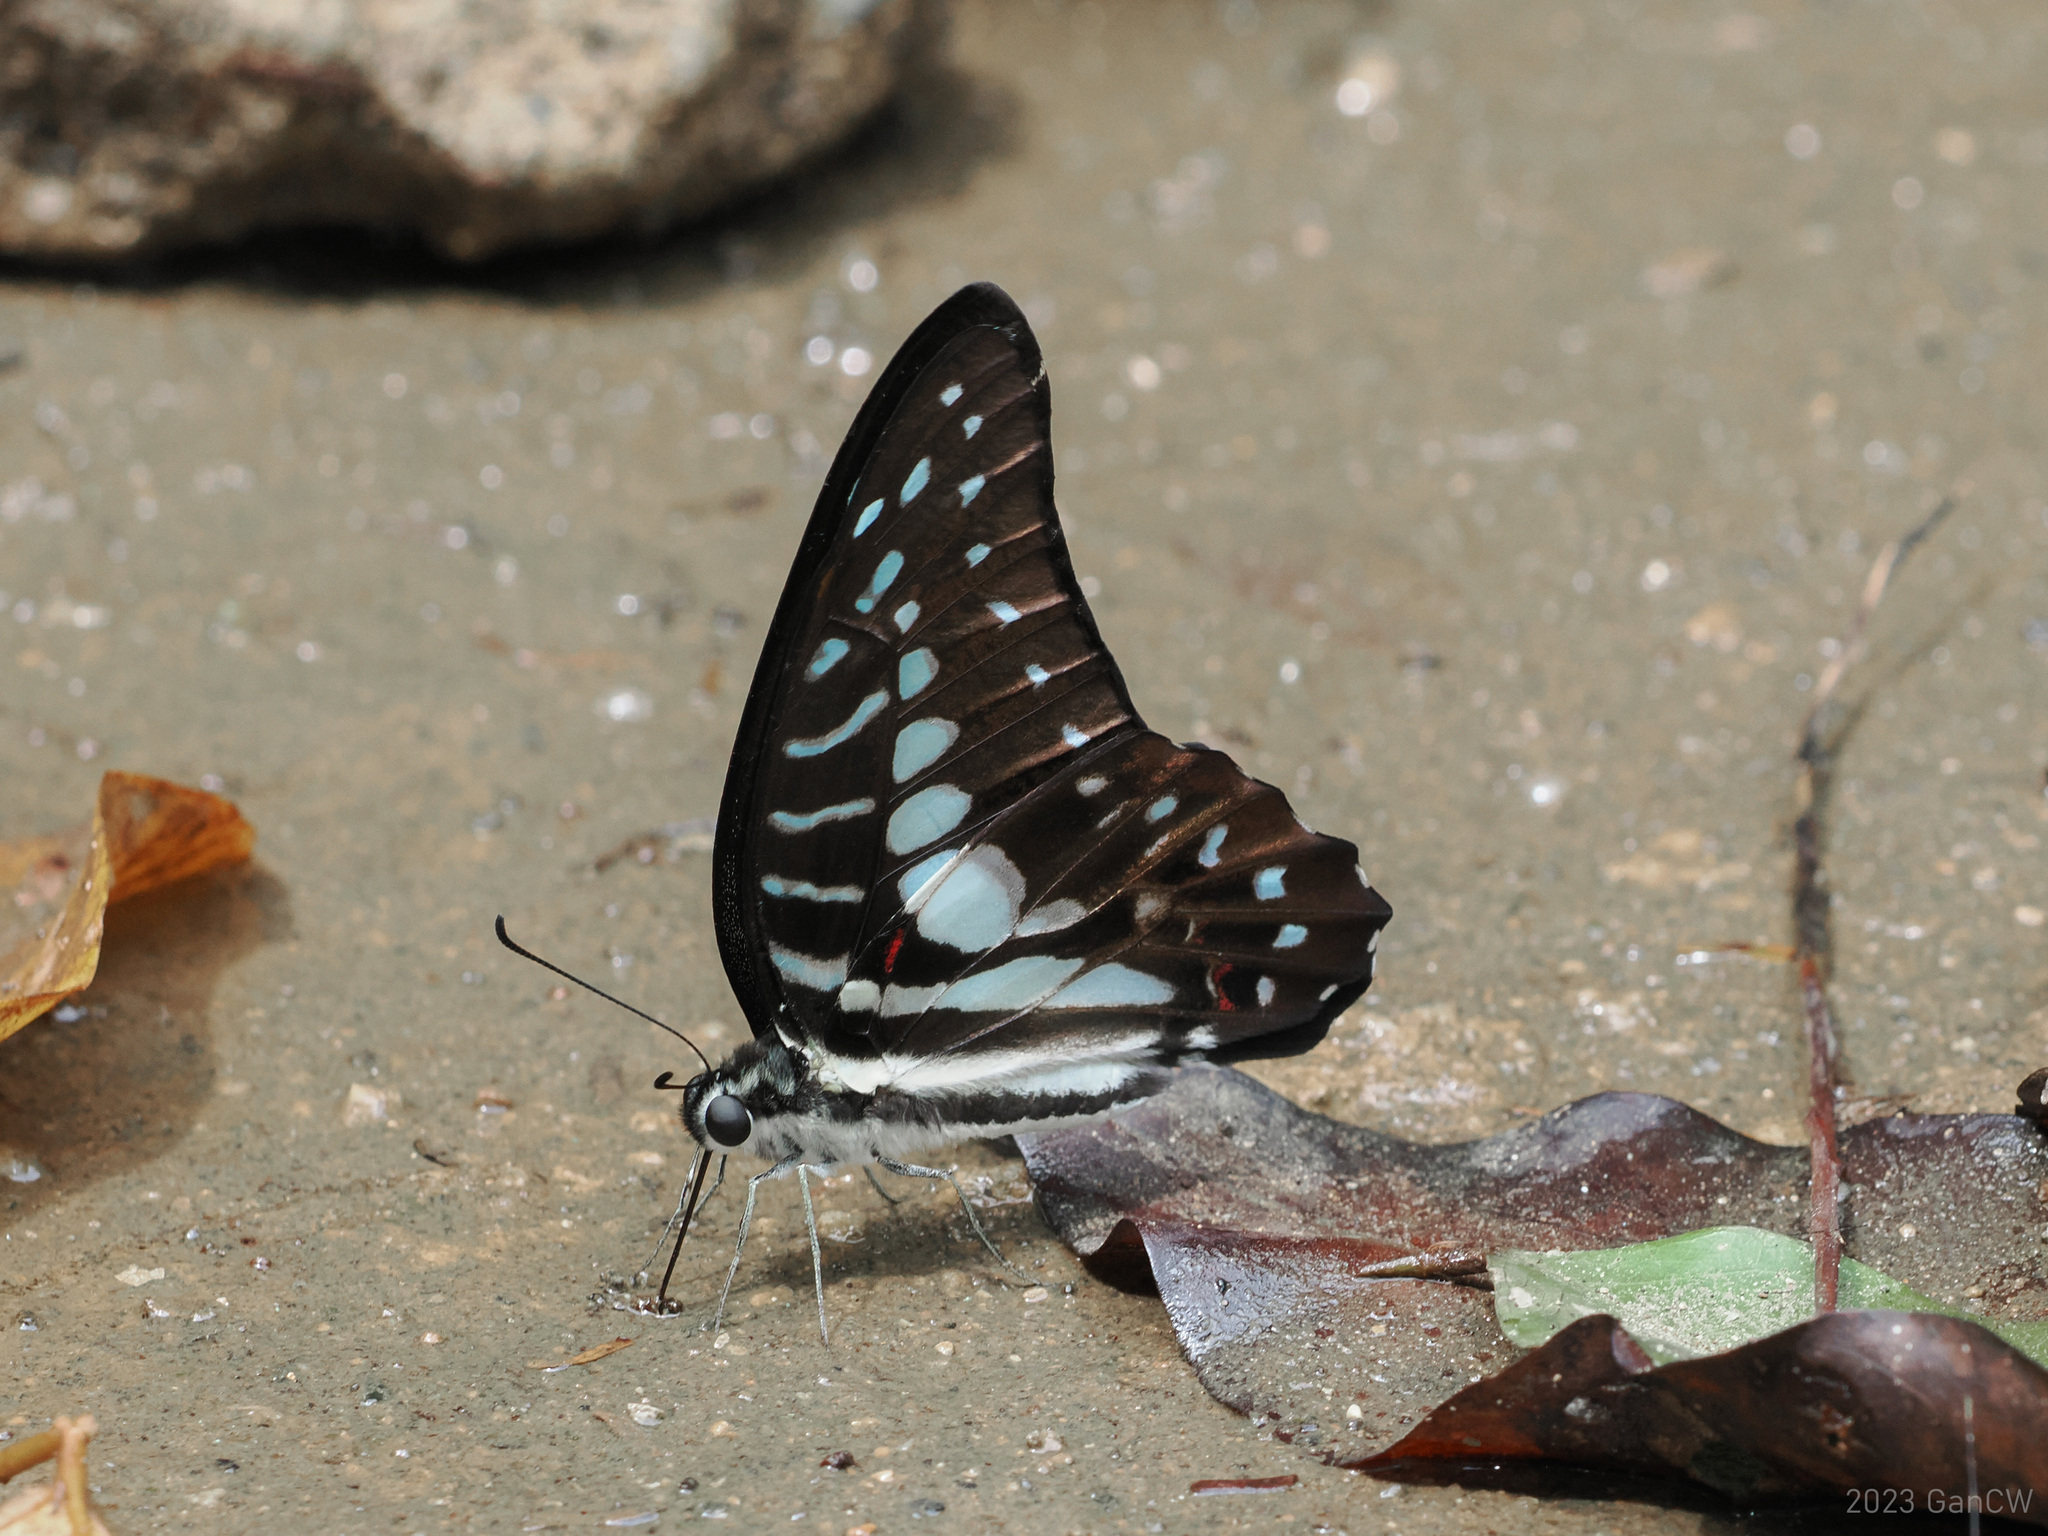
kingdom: Animalia
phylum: Arthropoda
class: Insecta
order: Lepidoptera
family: Papilionidae
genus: Graphium
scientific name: Graphium meyeri
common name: Meyer's triangle
